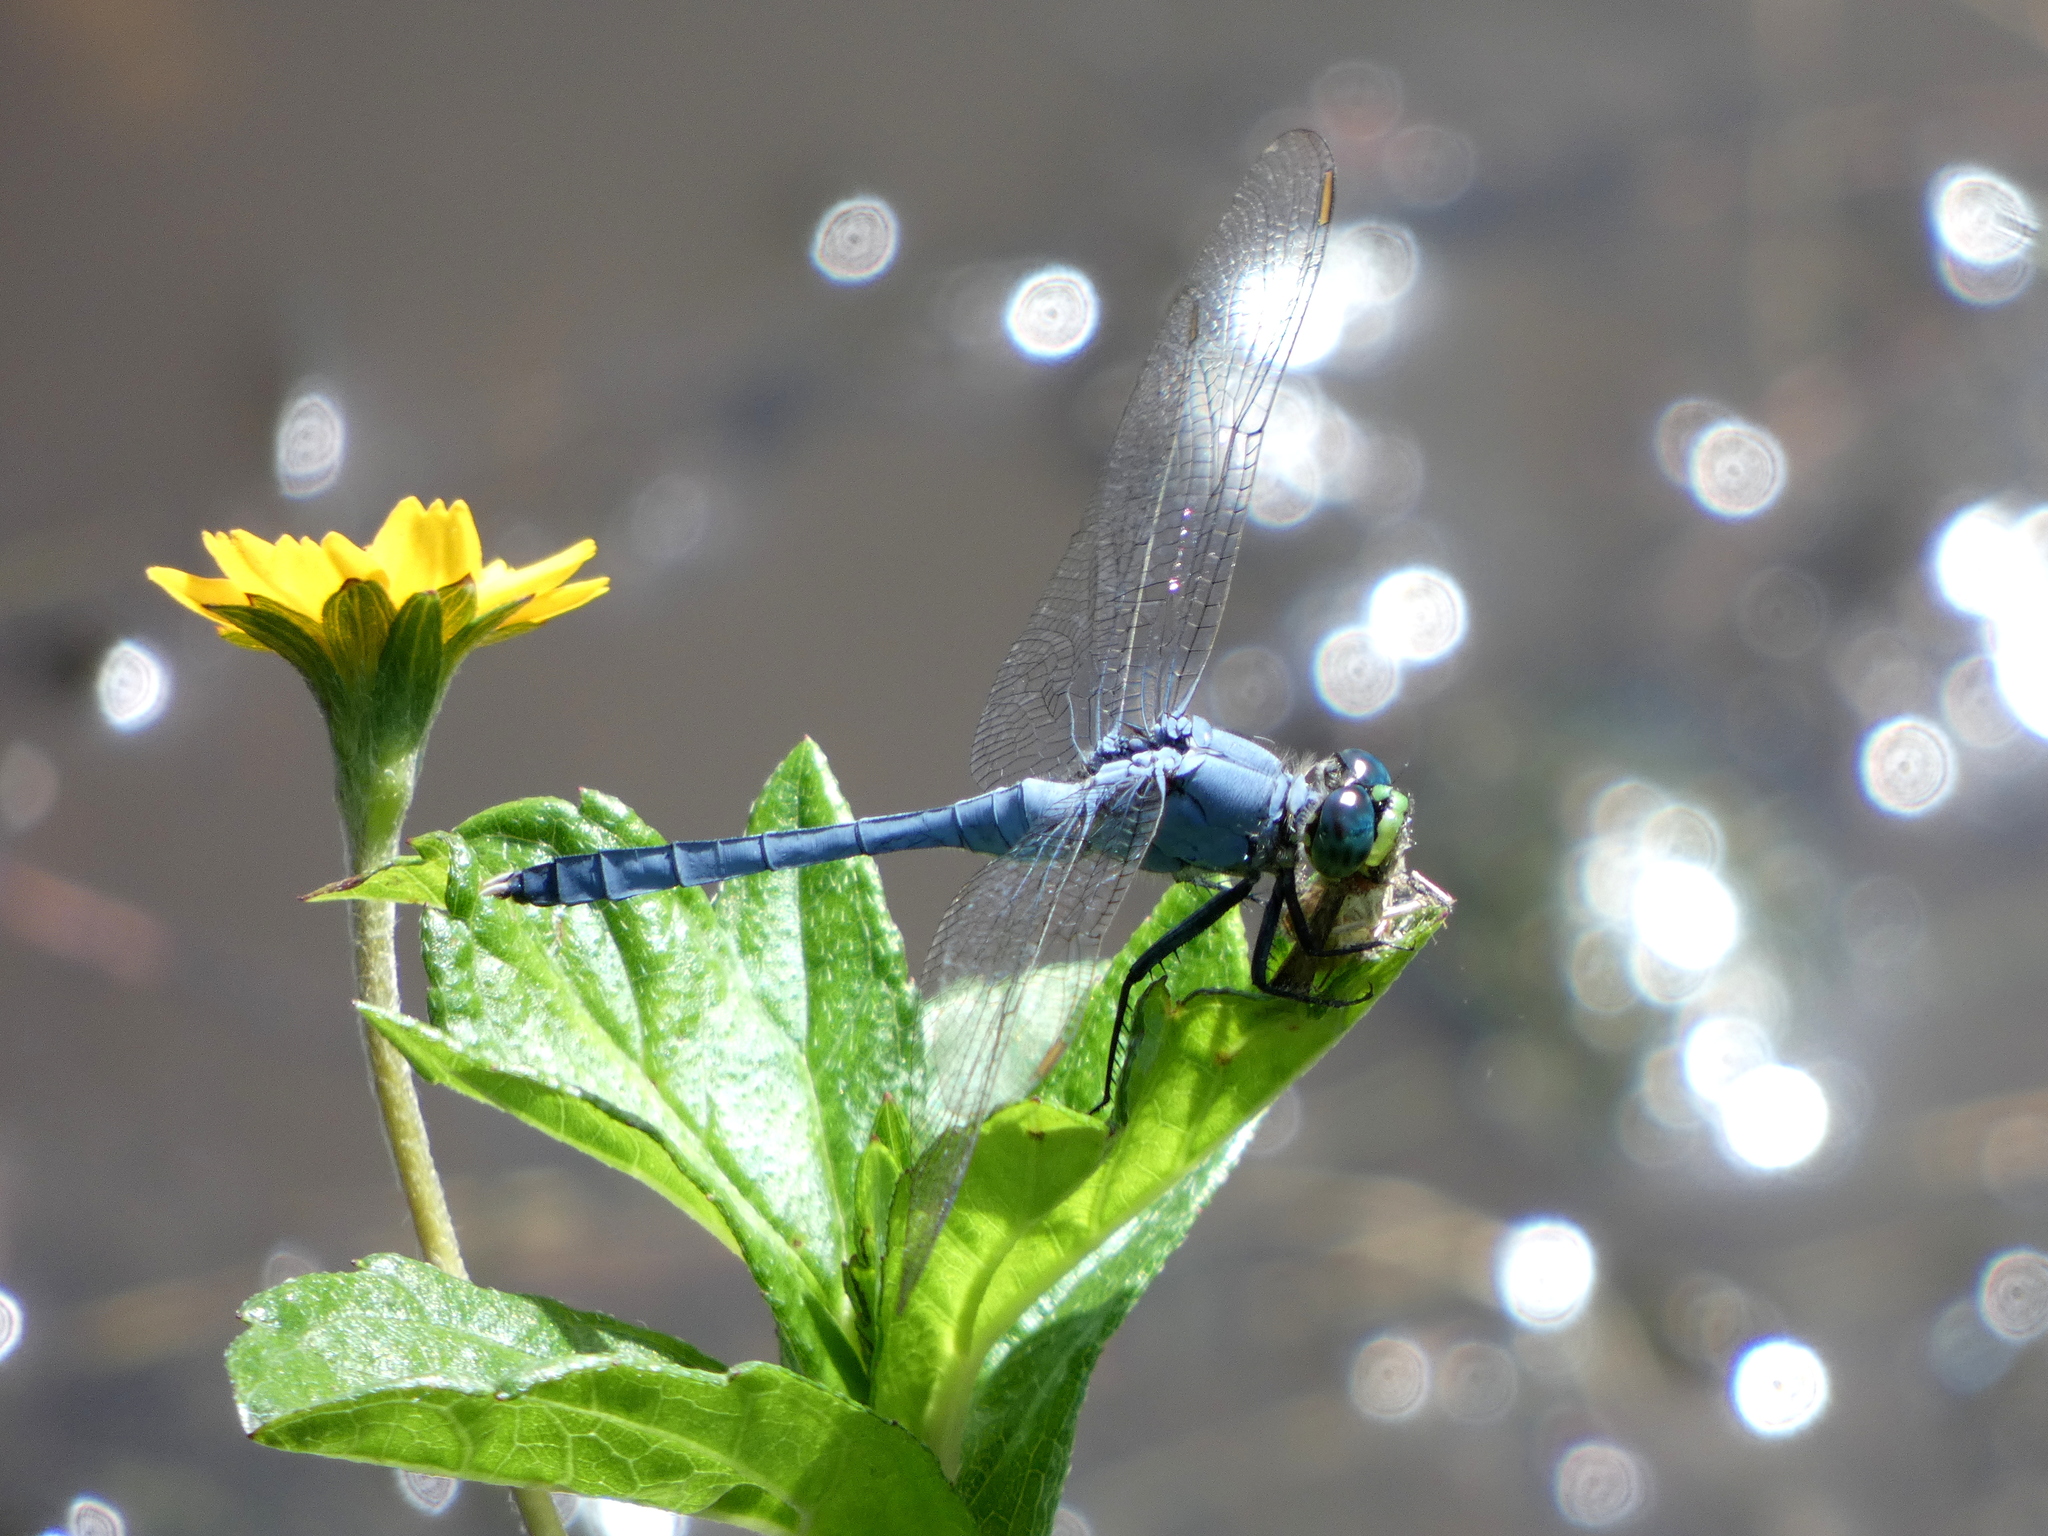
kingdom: Animalia
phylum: Arthropoda
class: Insecta
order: Odonata
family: Libellulidae
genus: Erythemis
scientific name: Erythemis simplicicollis
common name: Eastern pondhawk
